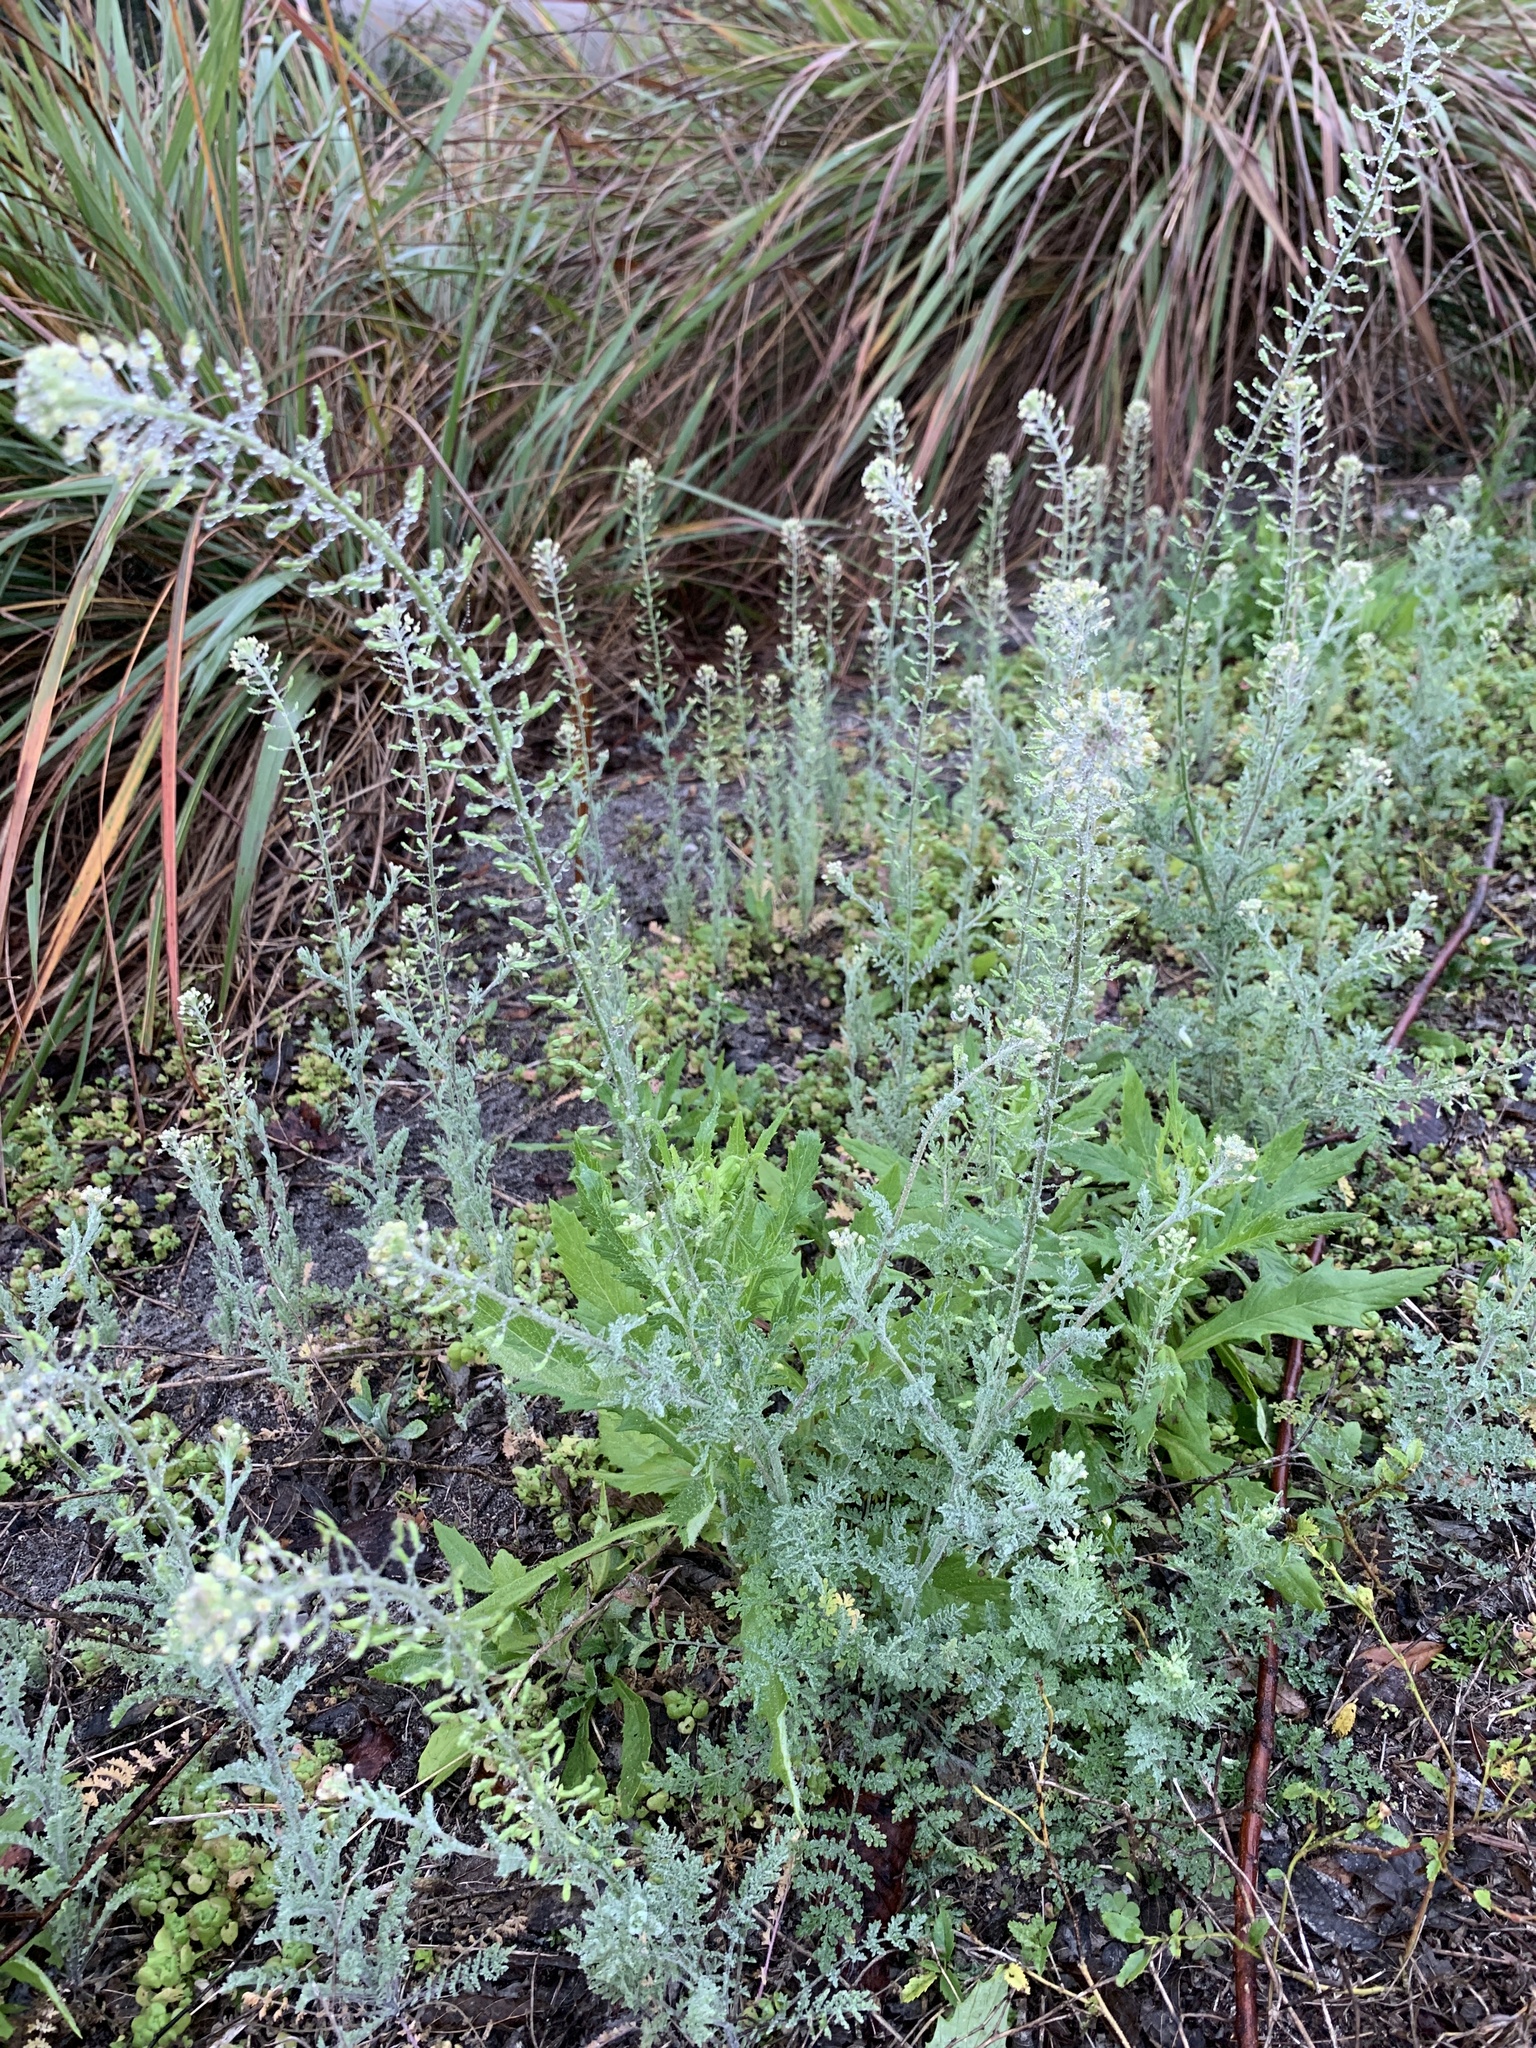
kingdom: Plantae
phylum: Tracheophyta
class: Magnoliopsida
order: Brassicales
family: Brassicaceae
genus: Descurainia
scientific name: Descurainia pinnata
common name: Western tansy mustard
